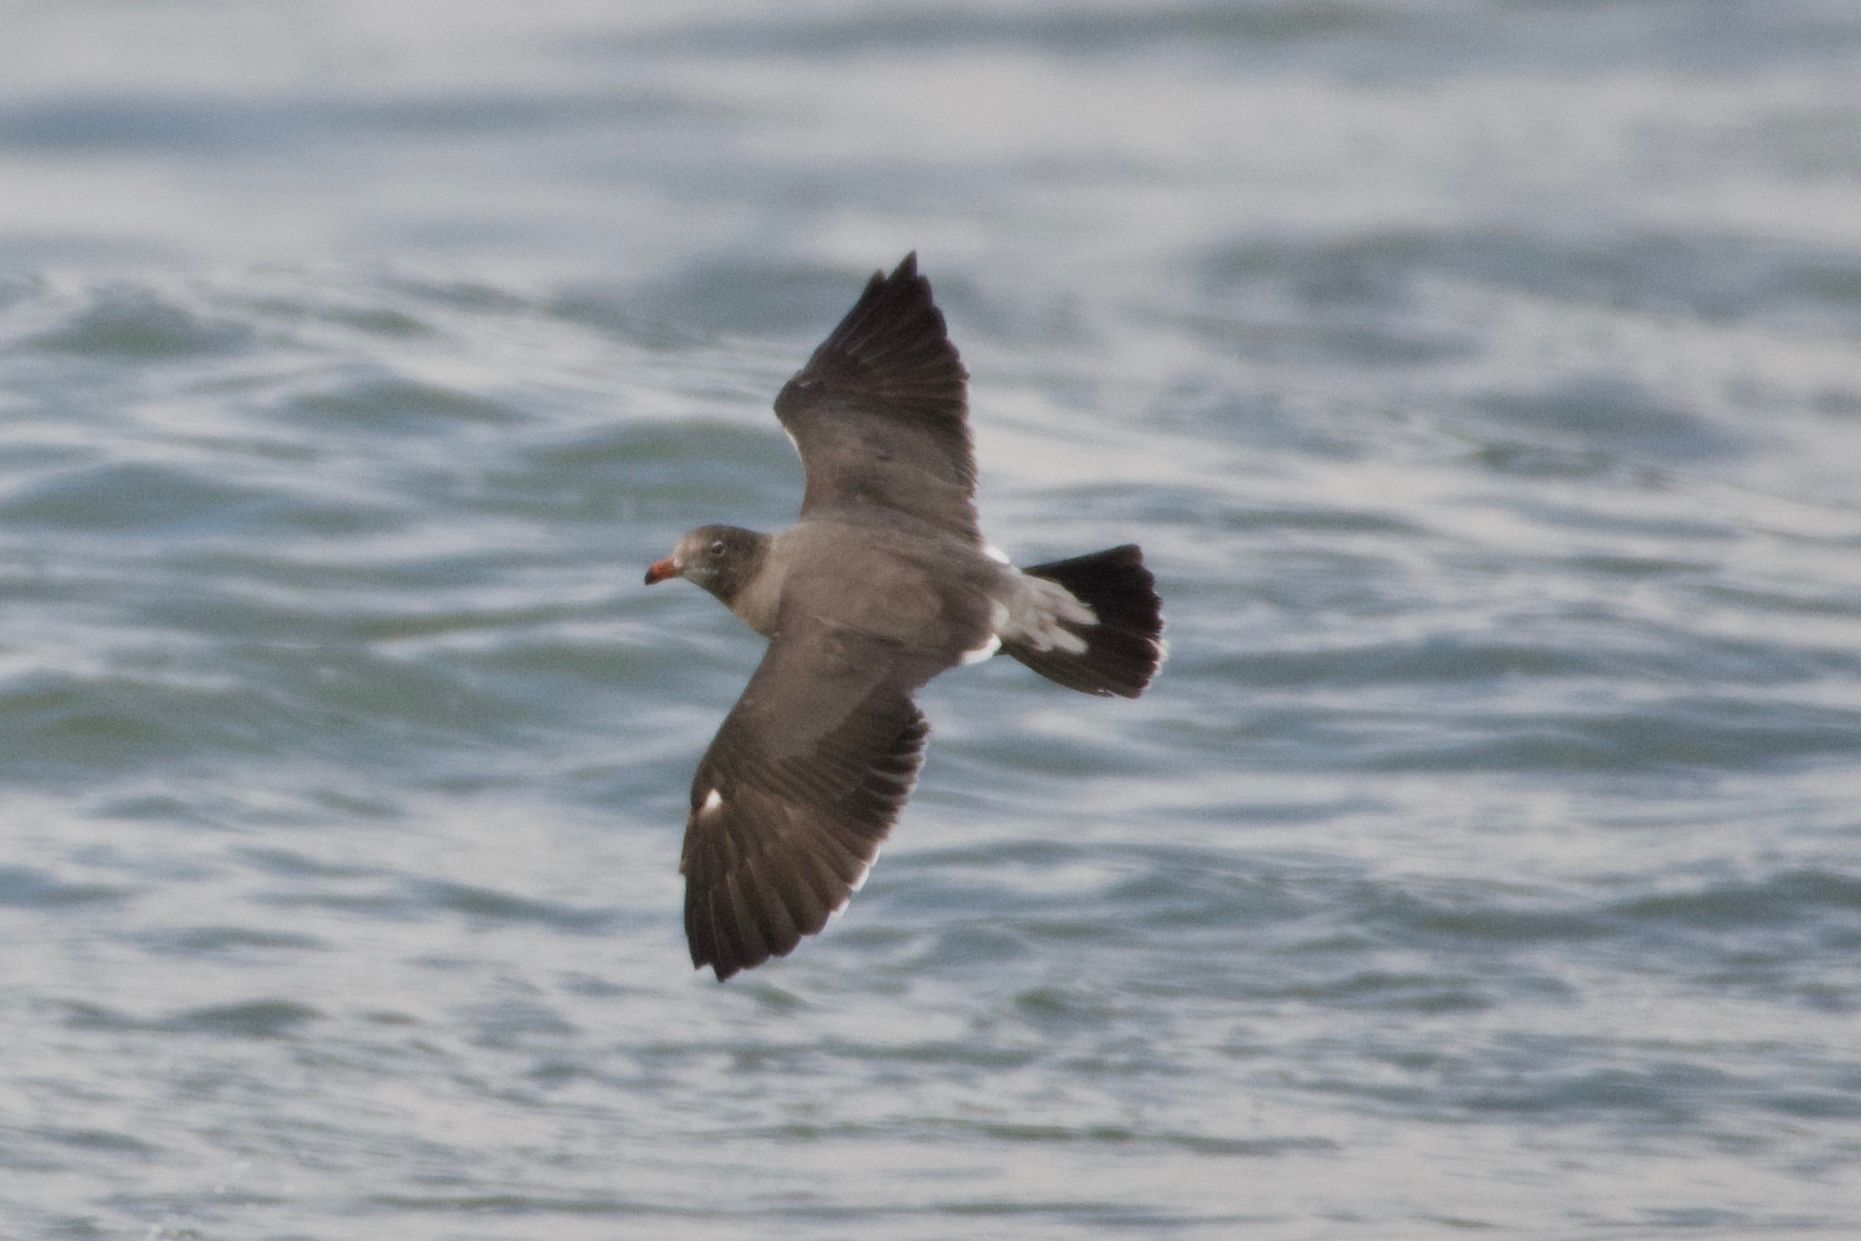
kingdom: Animalia
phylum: Chordata
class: Aves
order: Charadriiformes
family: Laridae
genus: Larus
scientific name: Larus heermanni
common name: Heermann's gull
